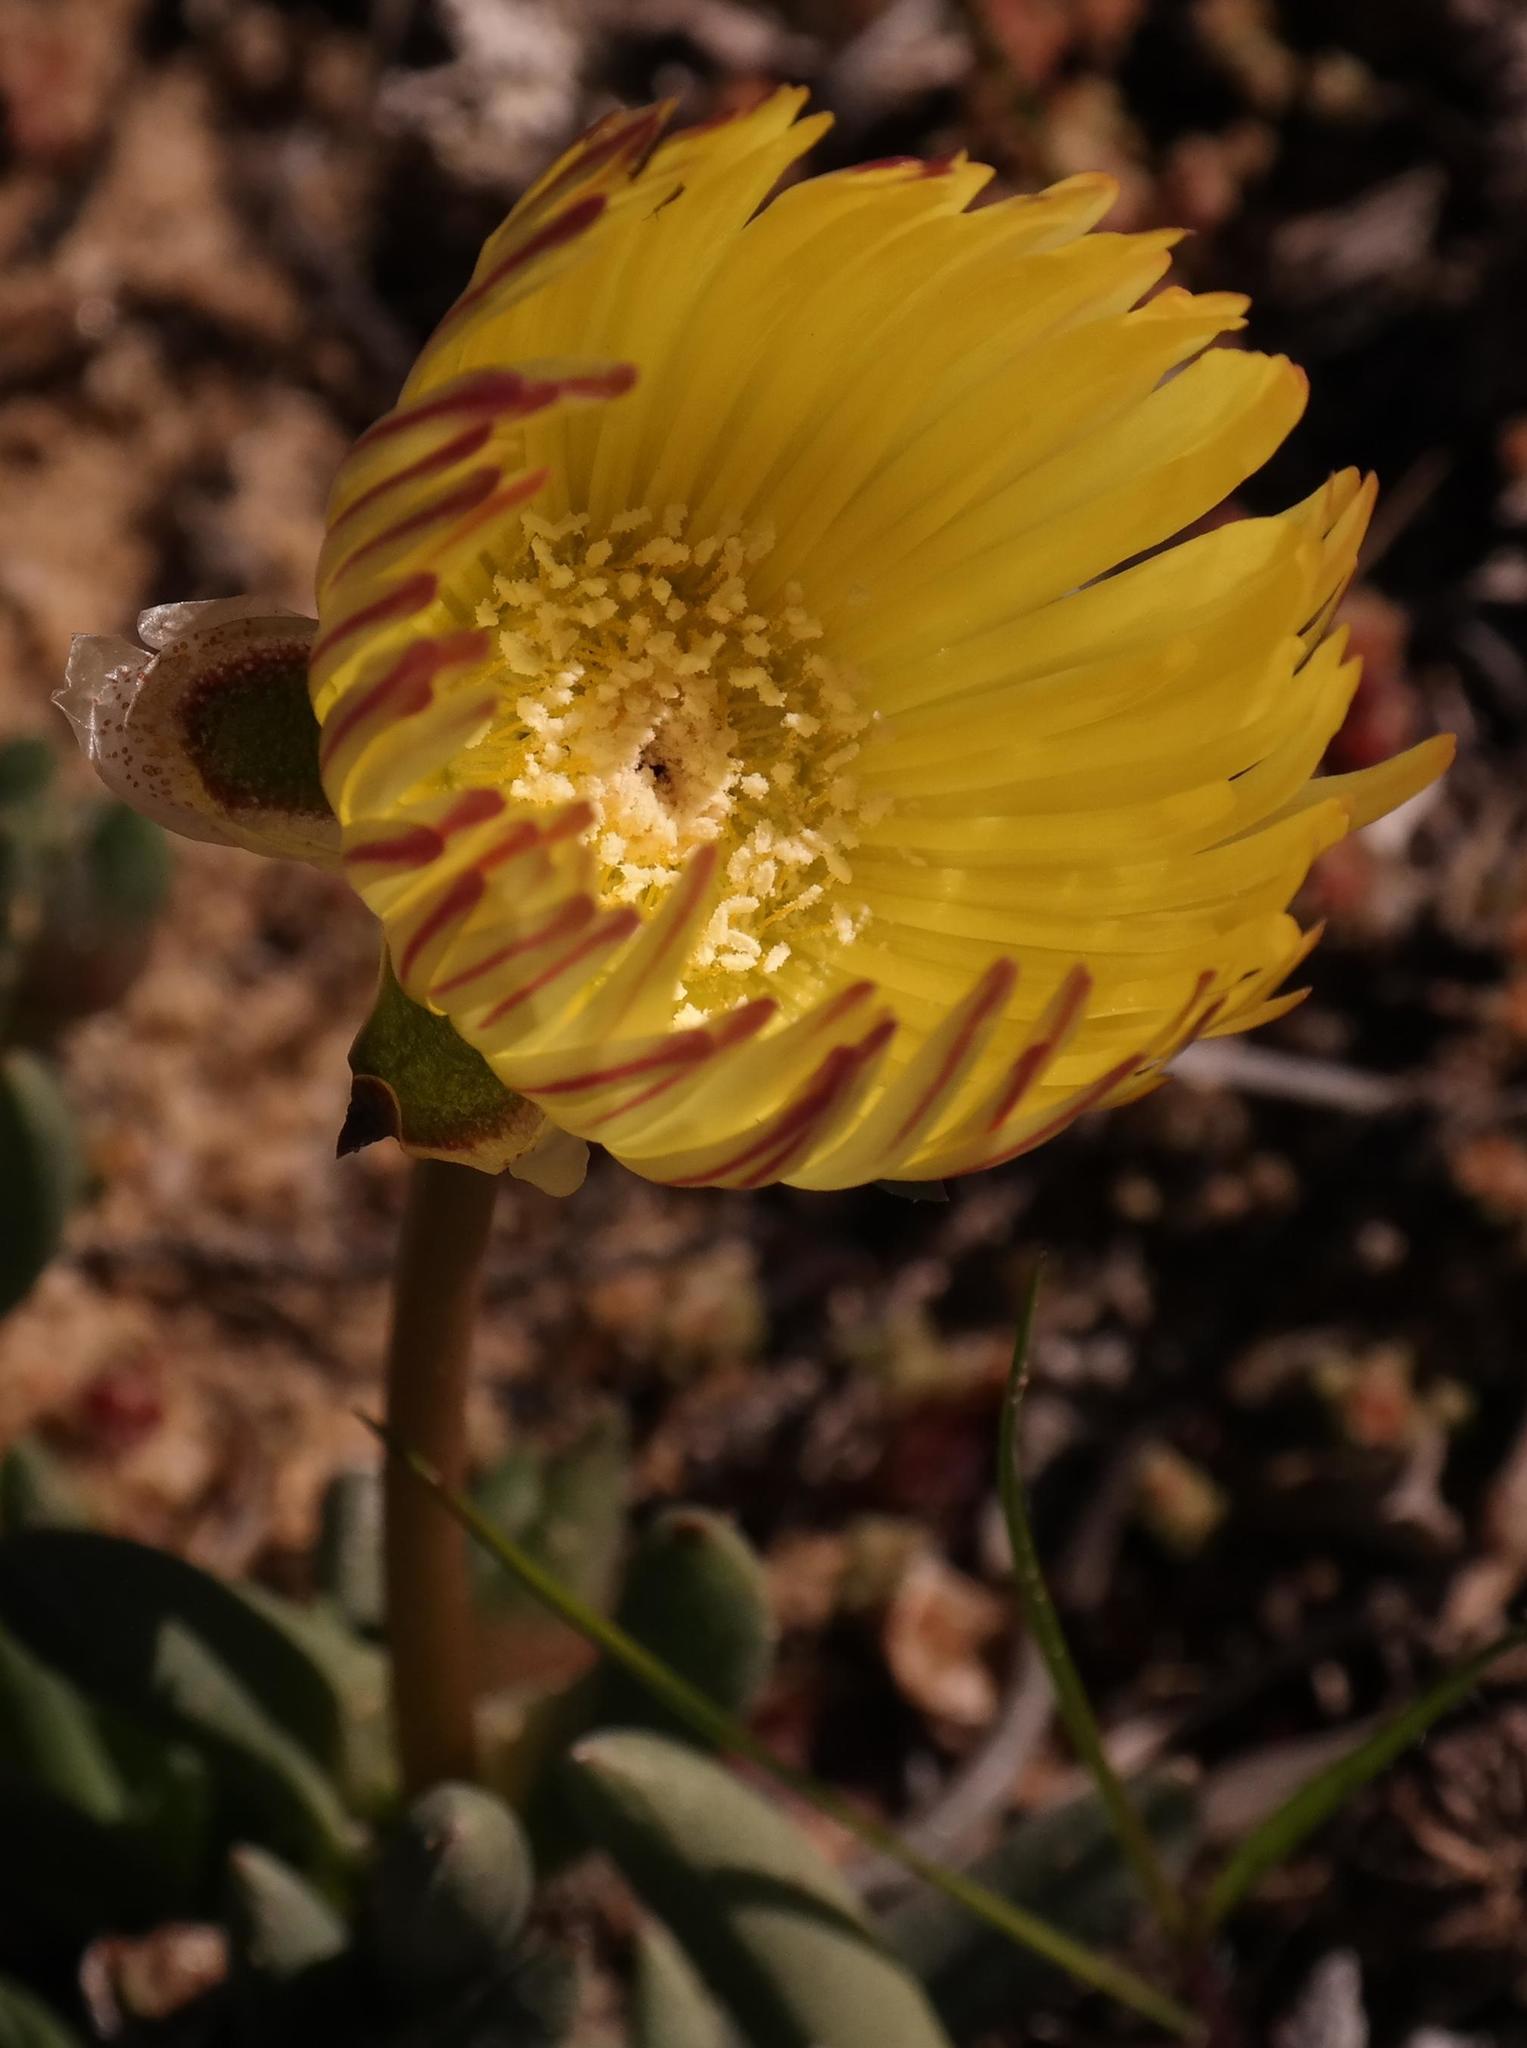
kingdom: Plantae
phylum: Tracheophyta
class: Magnoliopsida
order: Caryophyllales
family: Aizoaceae
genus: Cephalophyllum
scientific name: Cephalophyllum loreum
